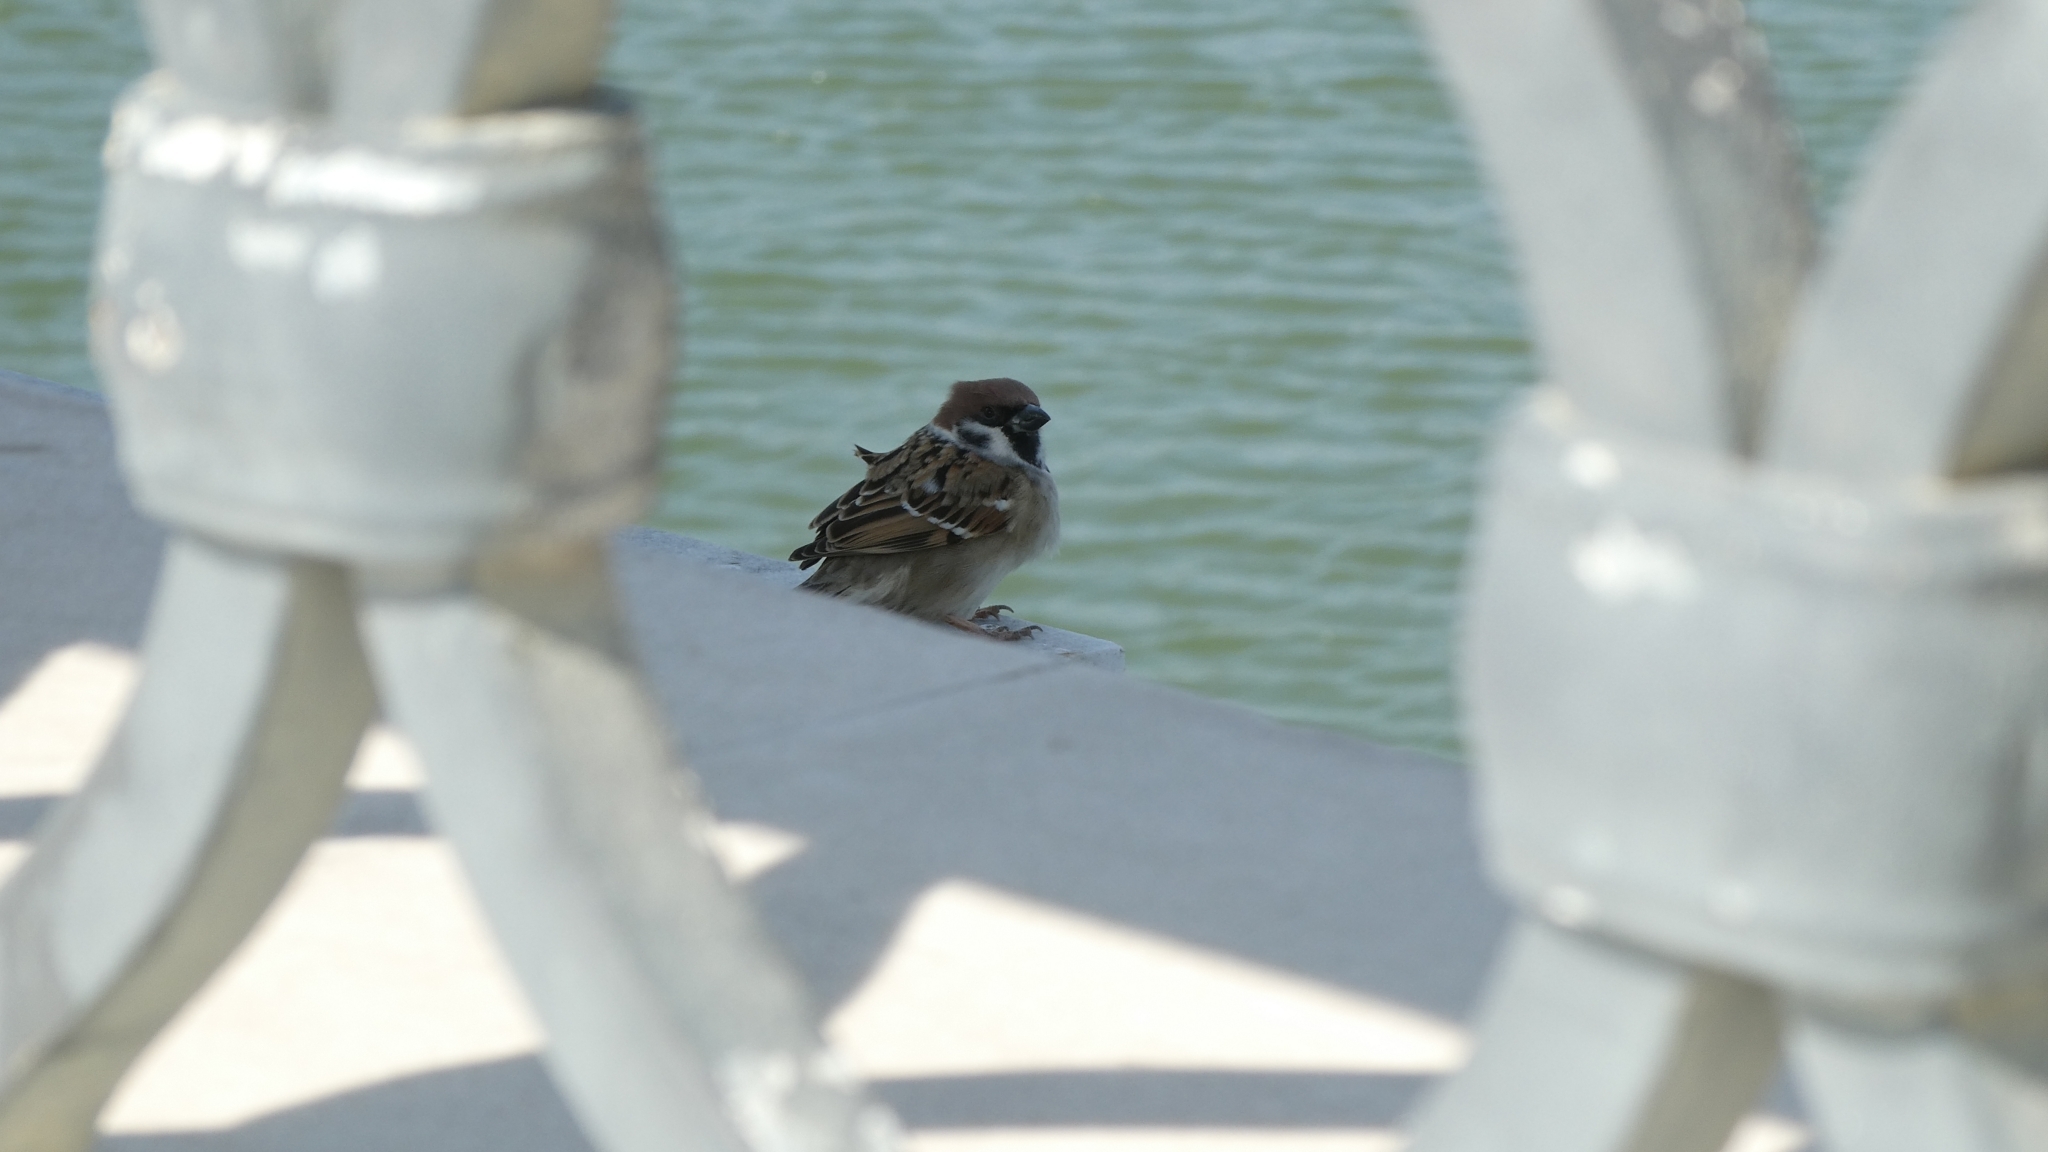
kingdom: Animalia
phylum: Chordata
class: Aves
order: Passeriformes
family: Passeridae
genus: Passer
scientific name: Passer montanus
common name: Eurasian tree sparrow
